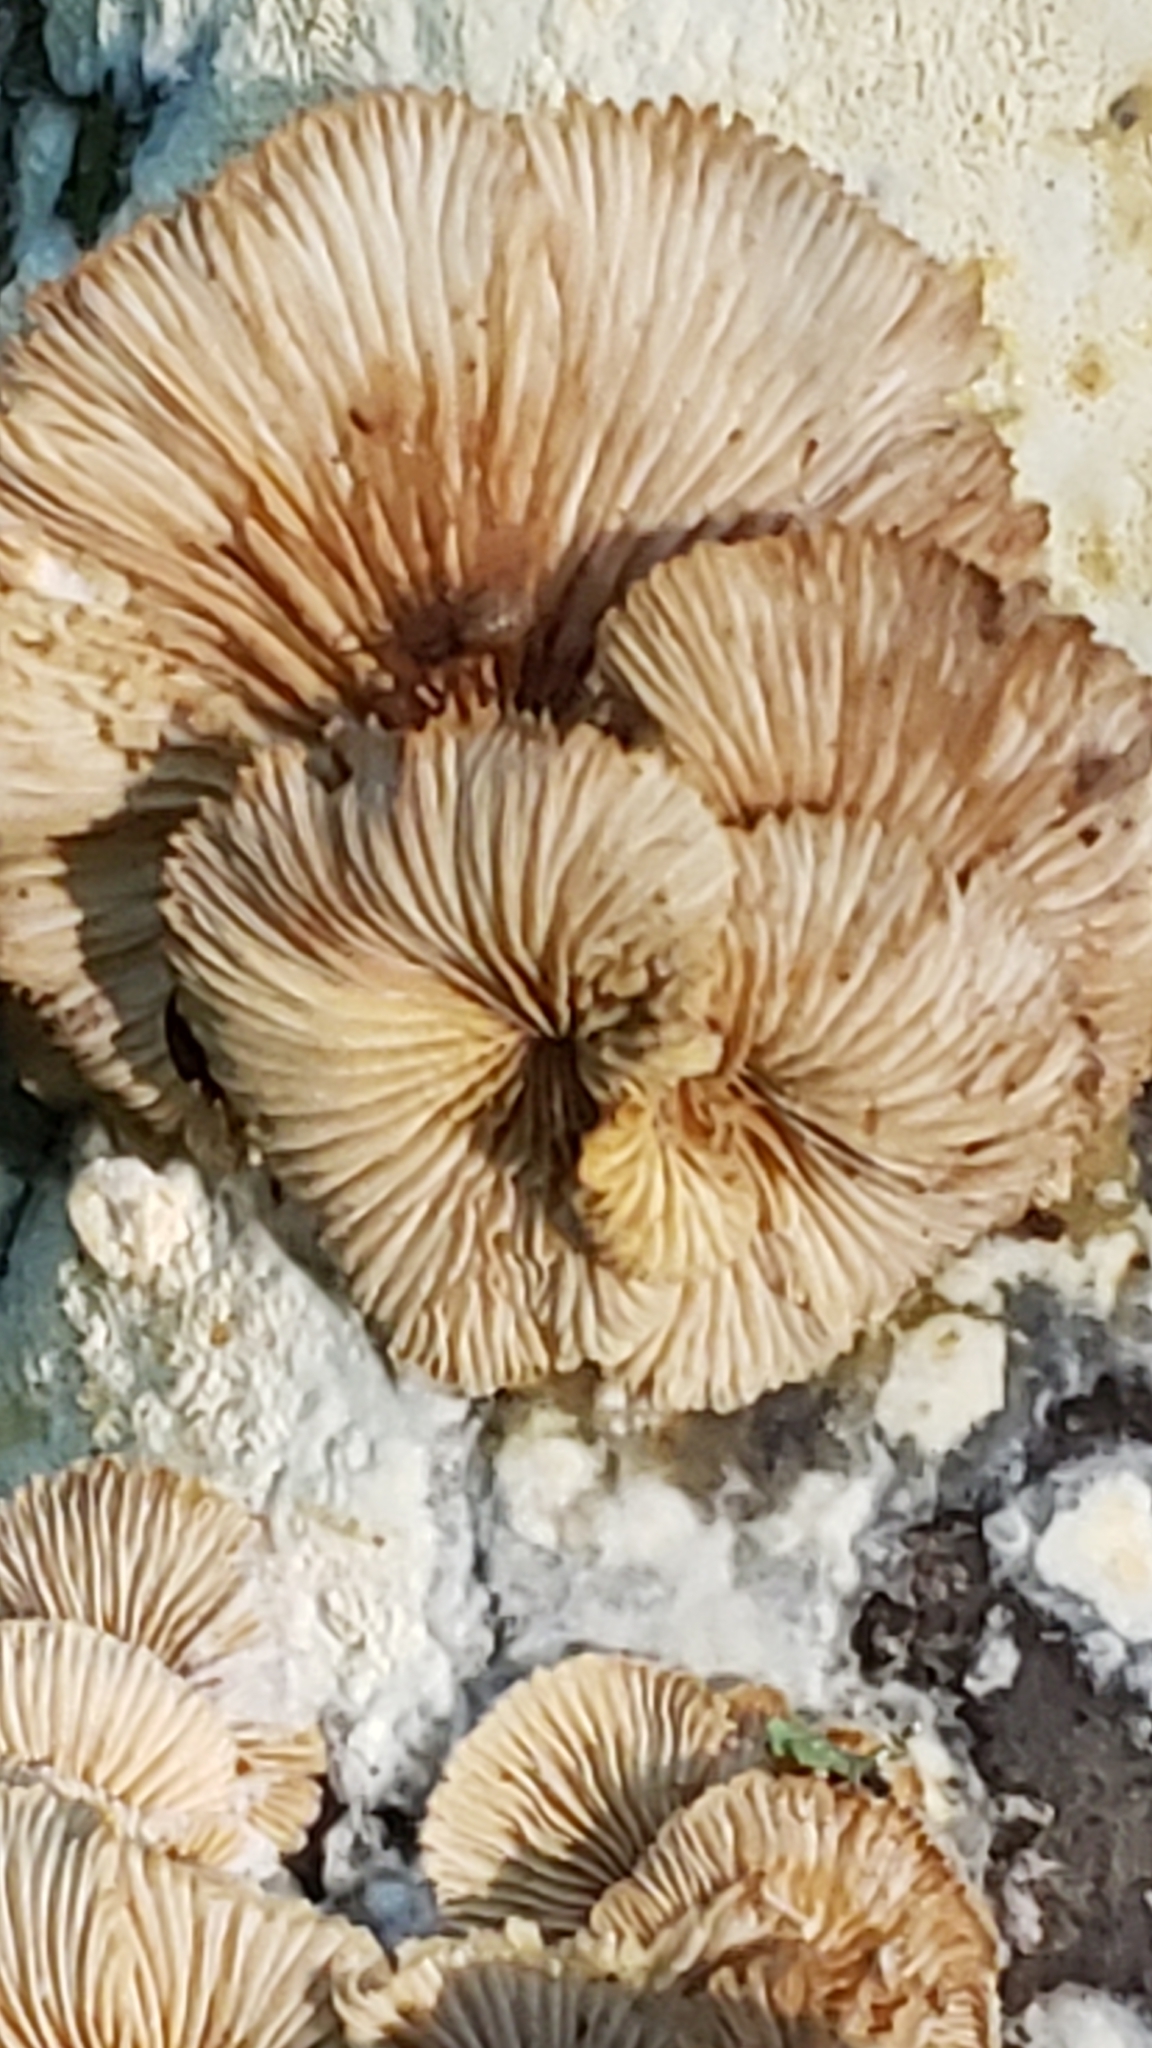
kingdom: Fungi
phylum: Basidiomycota
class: Agaricomycetes
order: Agaricales
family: Schizophyllaceae
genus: Schizophyllum
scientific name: Schizophyllum commune
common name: Common porecrust
